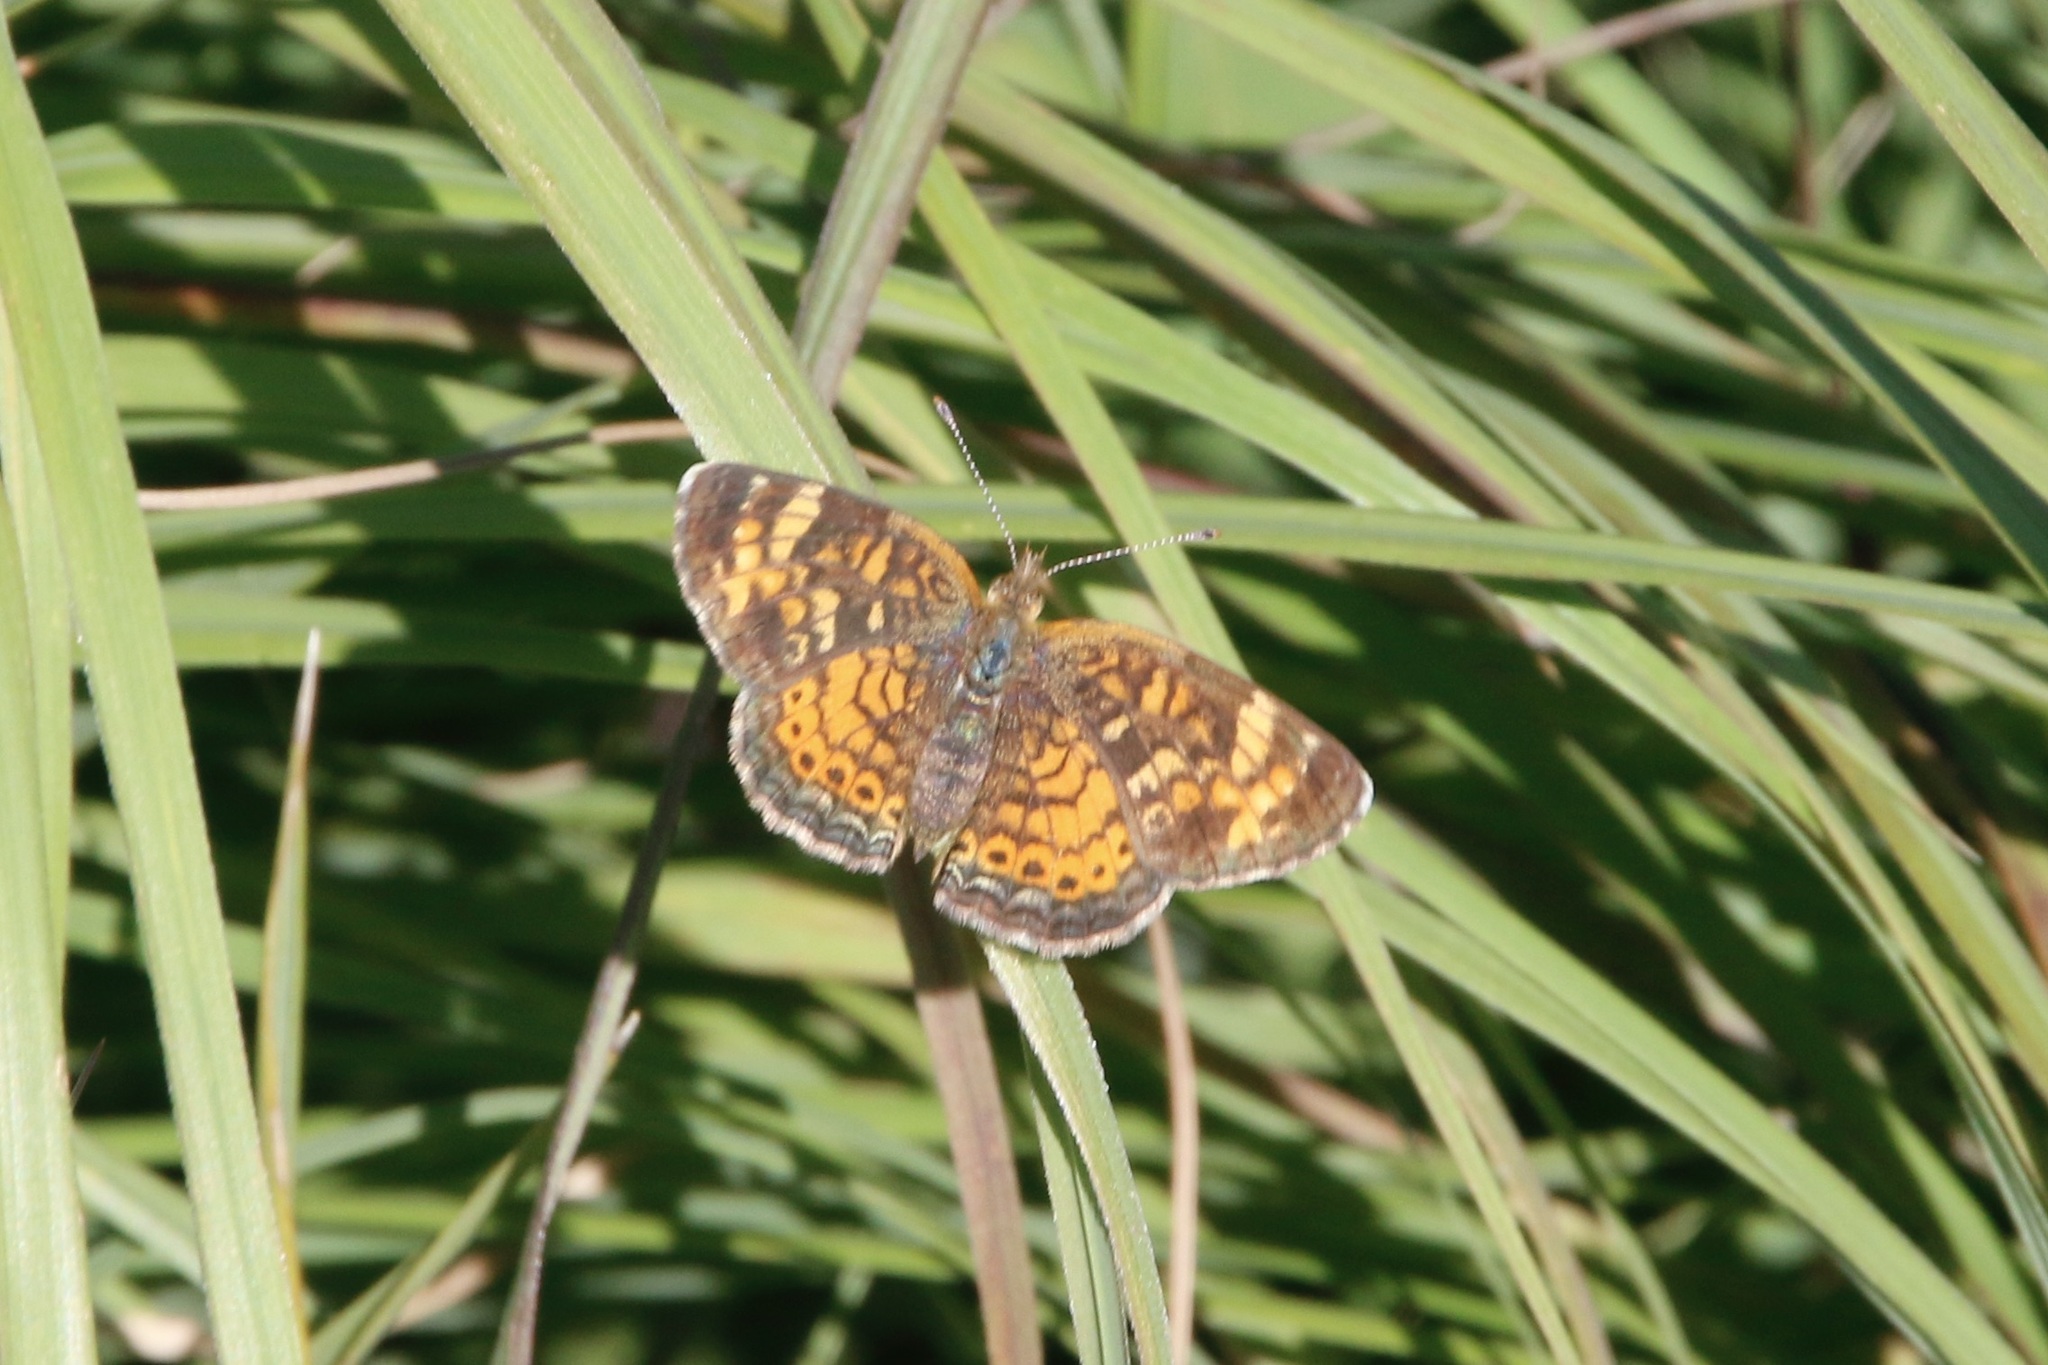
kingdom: Animalia
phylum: Arthropoda
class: Insecta
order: Lepidoptera
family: Nymphalidae
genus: Phyciodes
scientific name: Phyciodes tharos
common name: Pearl crescent
